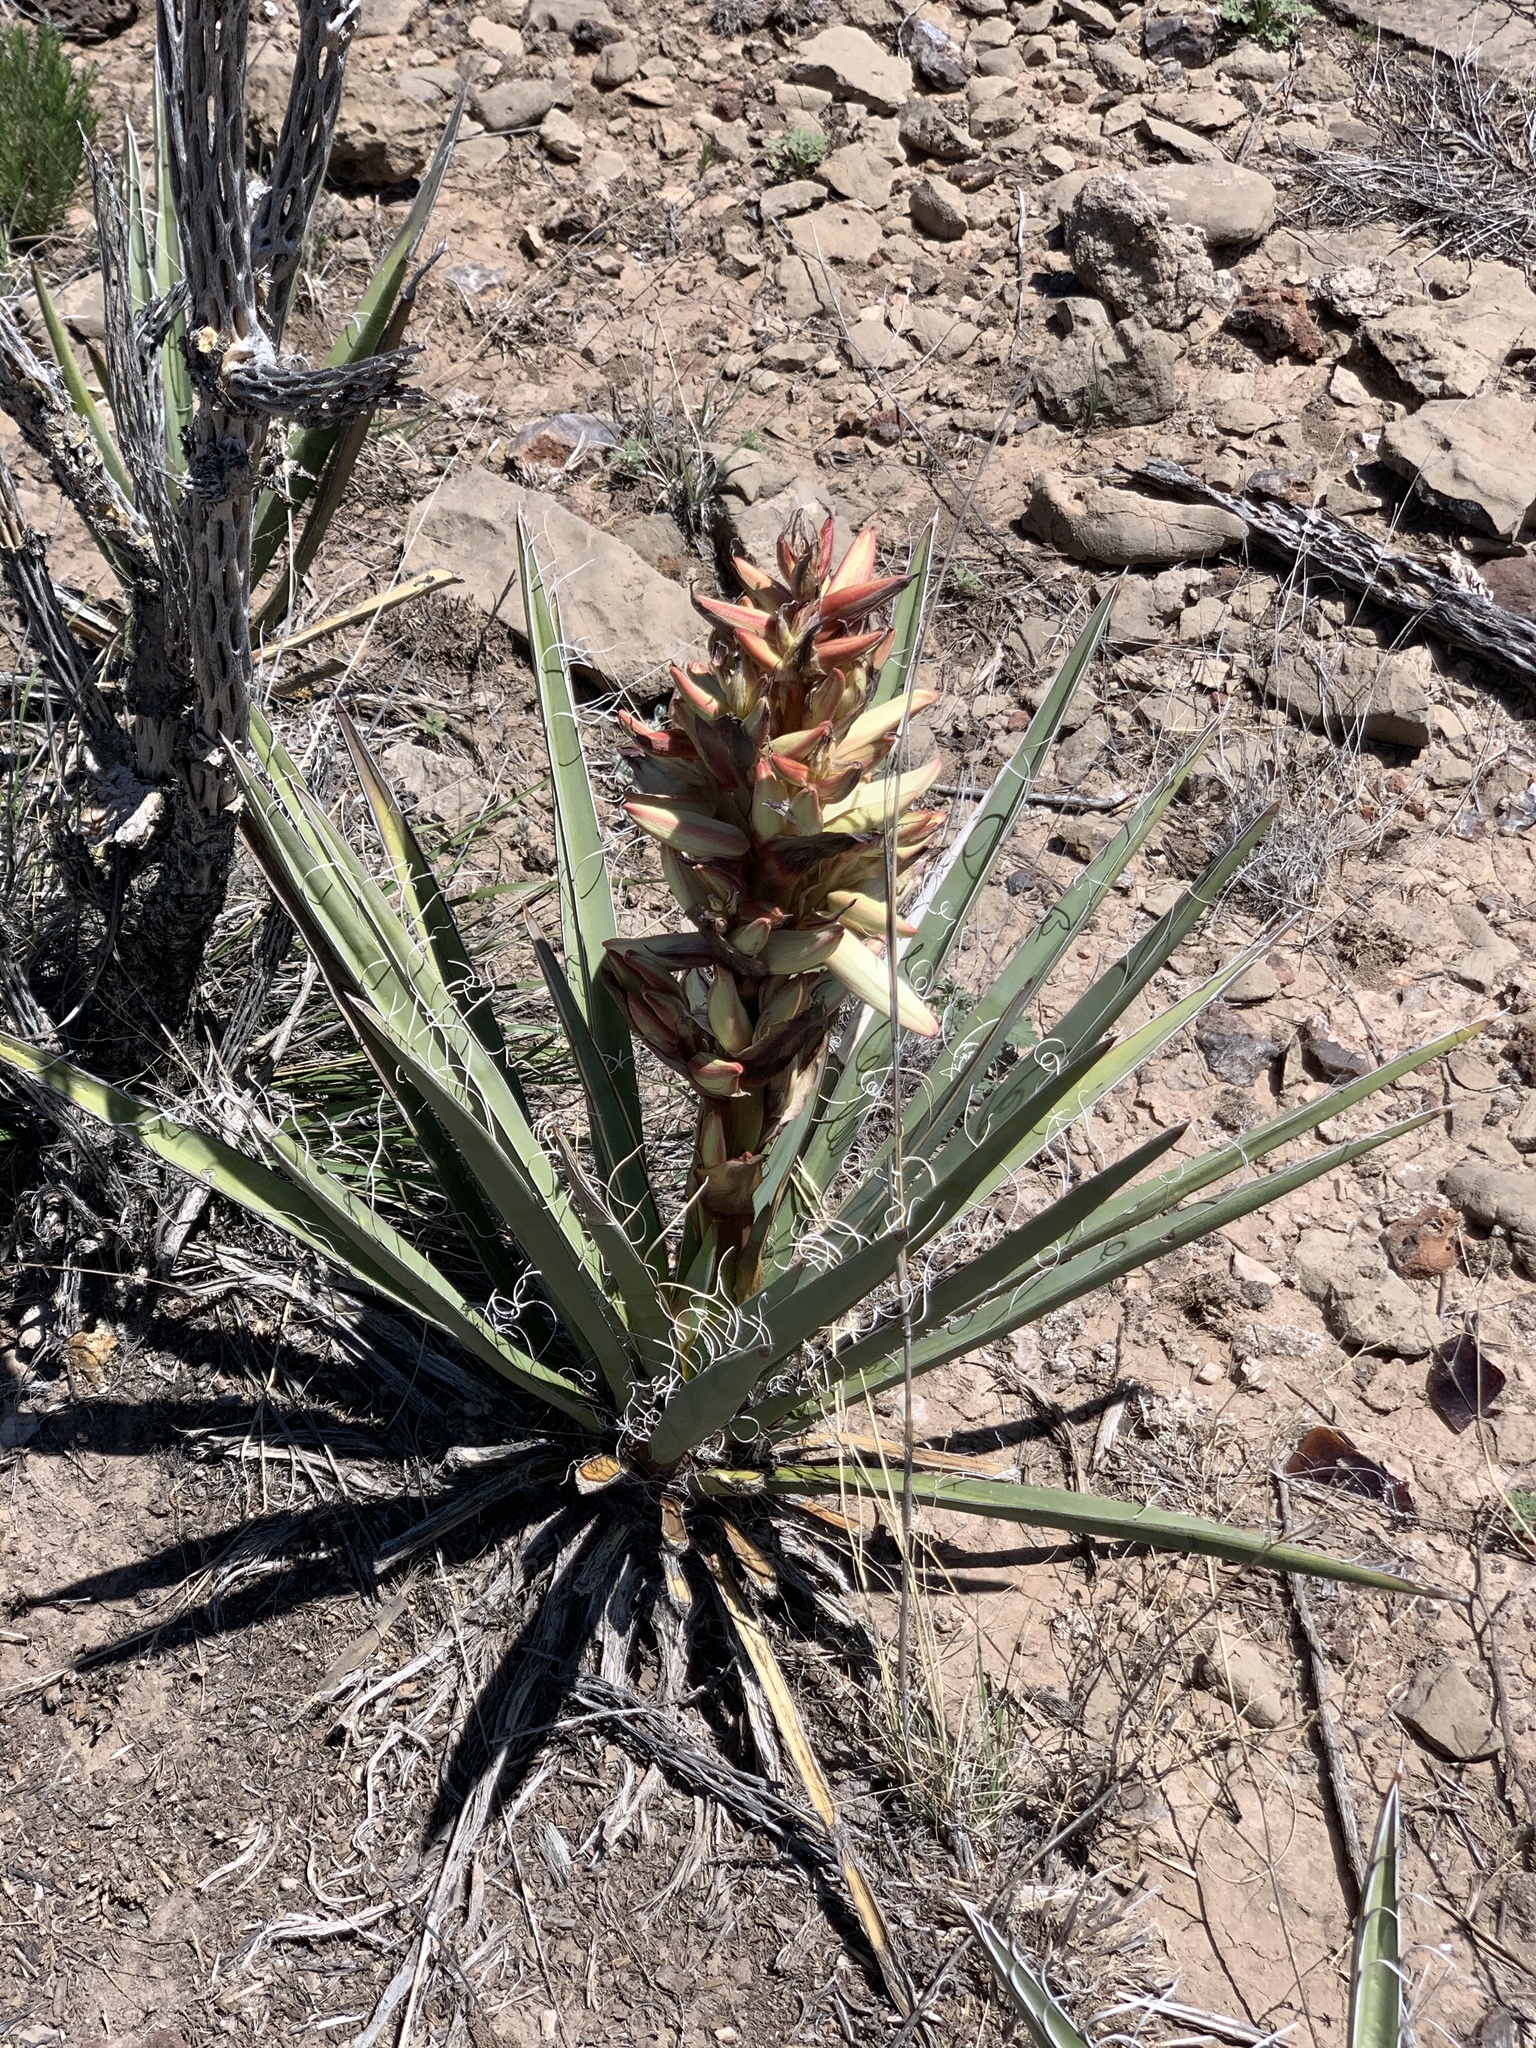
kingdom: Plantae
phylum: Tracheophyta
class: Liliopsida
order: Asparagales
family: Asparagaceae
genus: Yucca
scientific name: Yucca baccata
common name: Banana yucca
